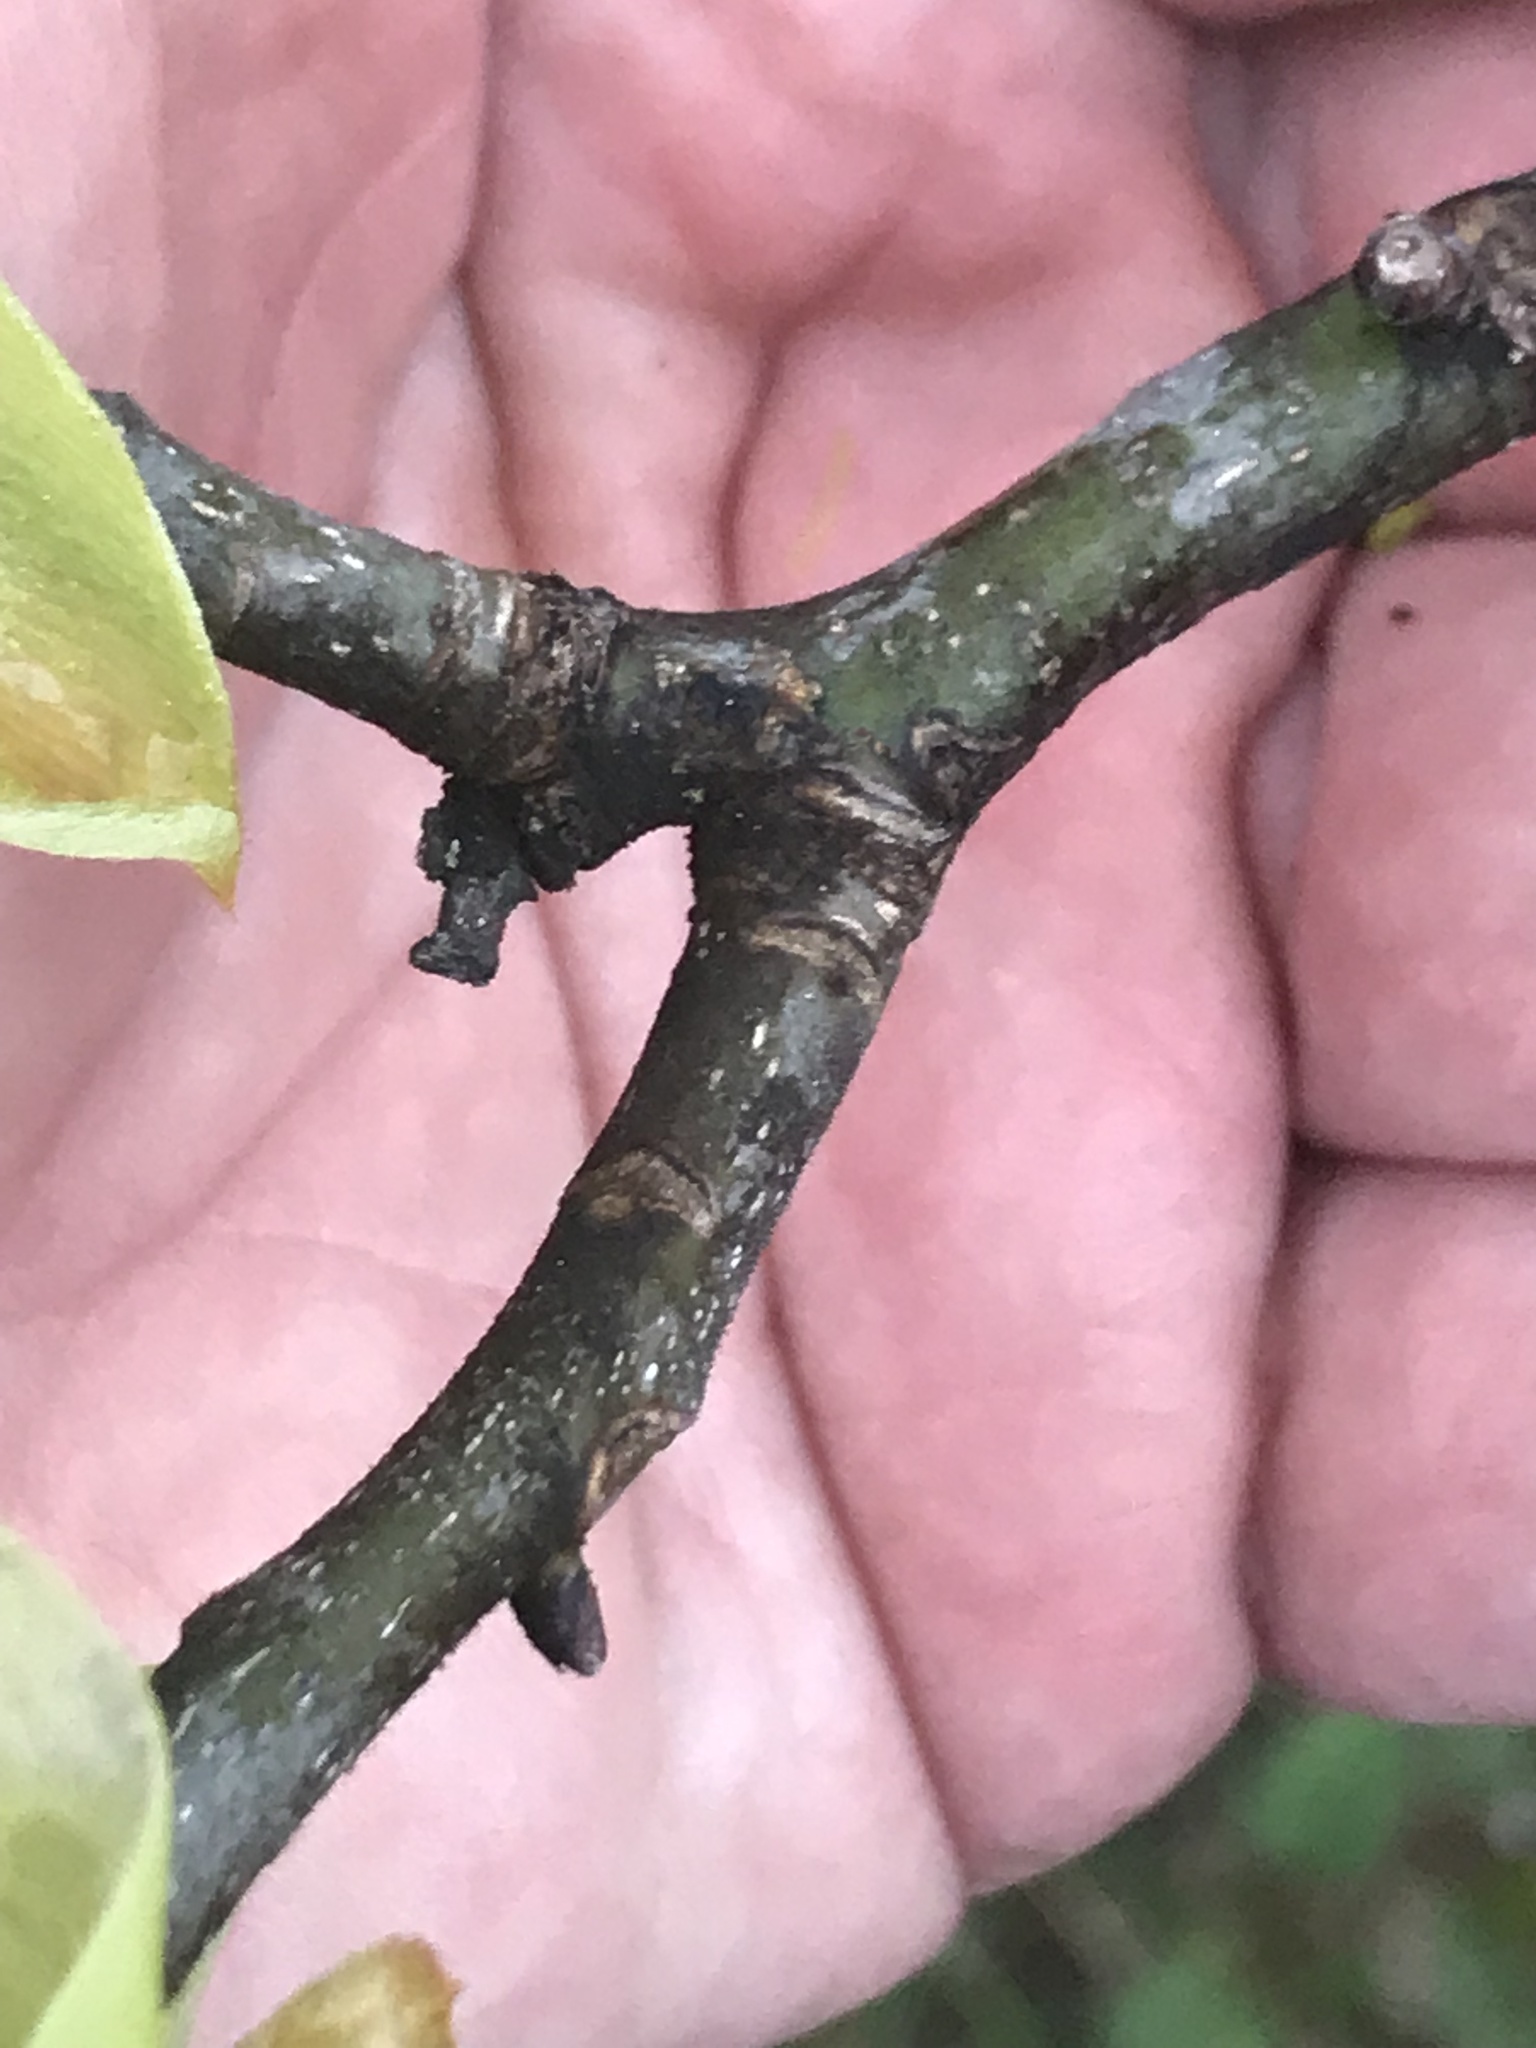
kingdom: Plantae
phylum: Tracheophyta
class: Magnoliopsida
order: Fagales
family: Juglandaceae
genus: Carya
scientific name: Carya ovata
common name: Shagbark hickory
